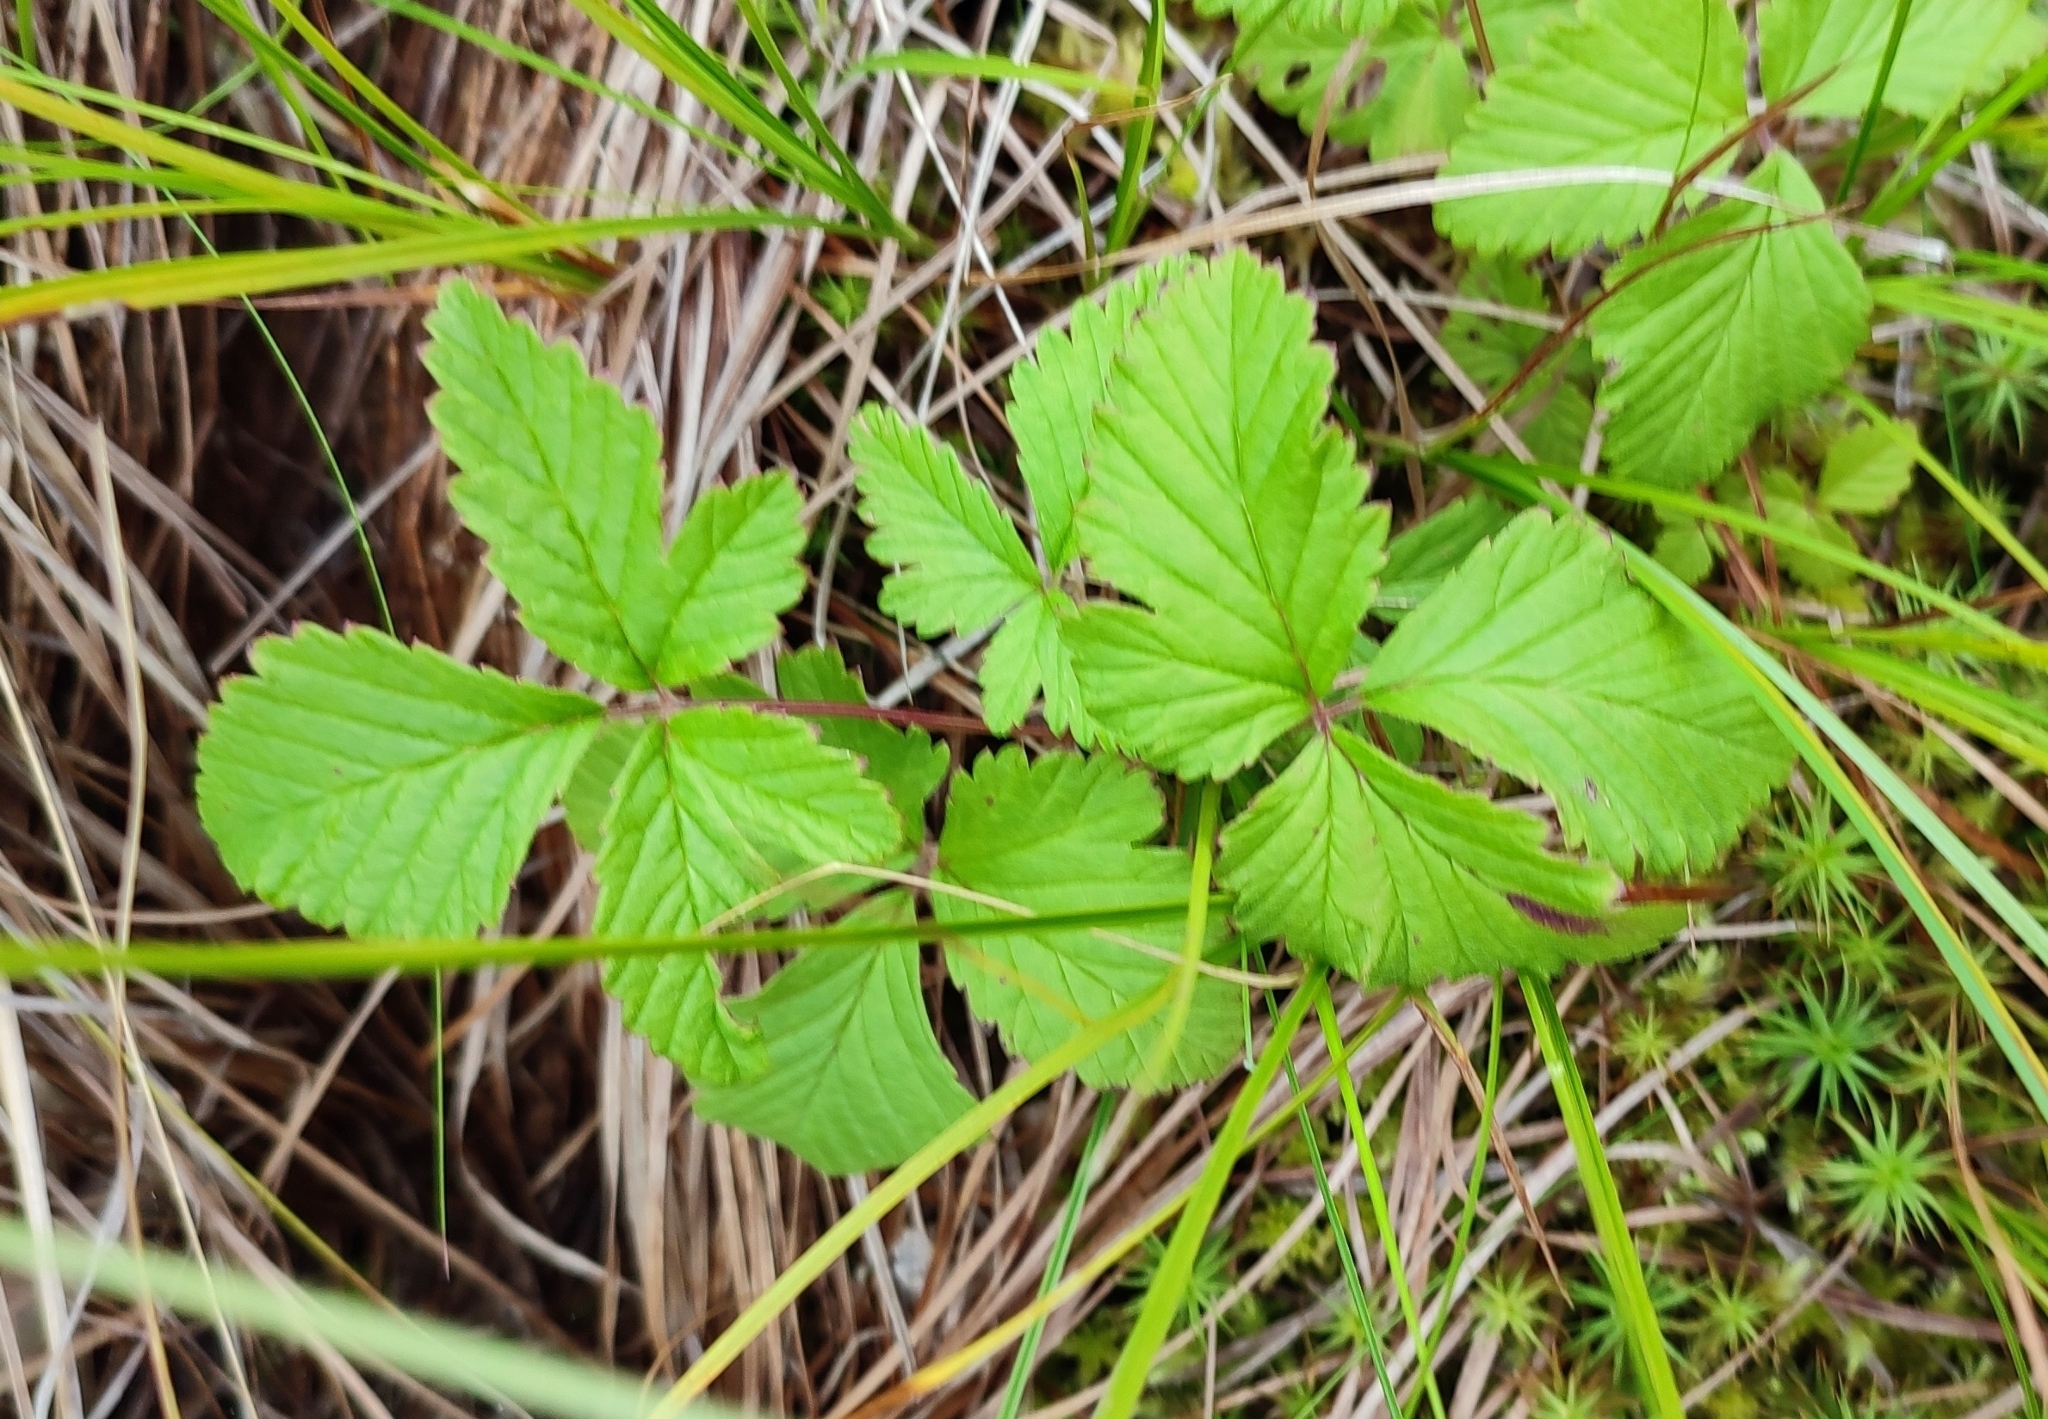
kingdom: Plantae
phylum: Tracheophyta
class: Magnoliopsida
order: Rosales
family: Rosaceae
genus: Rubus
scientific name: Rubus arcticus
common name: Arctic bramble
